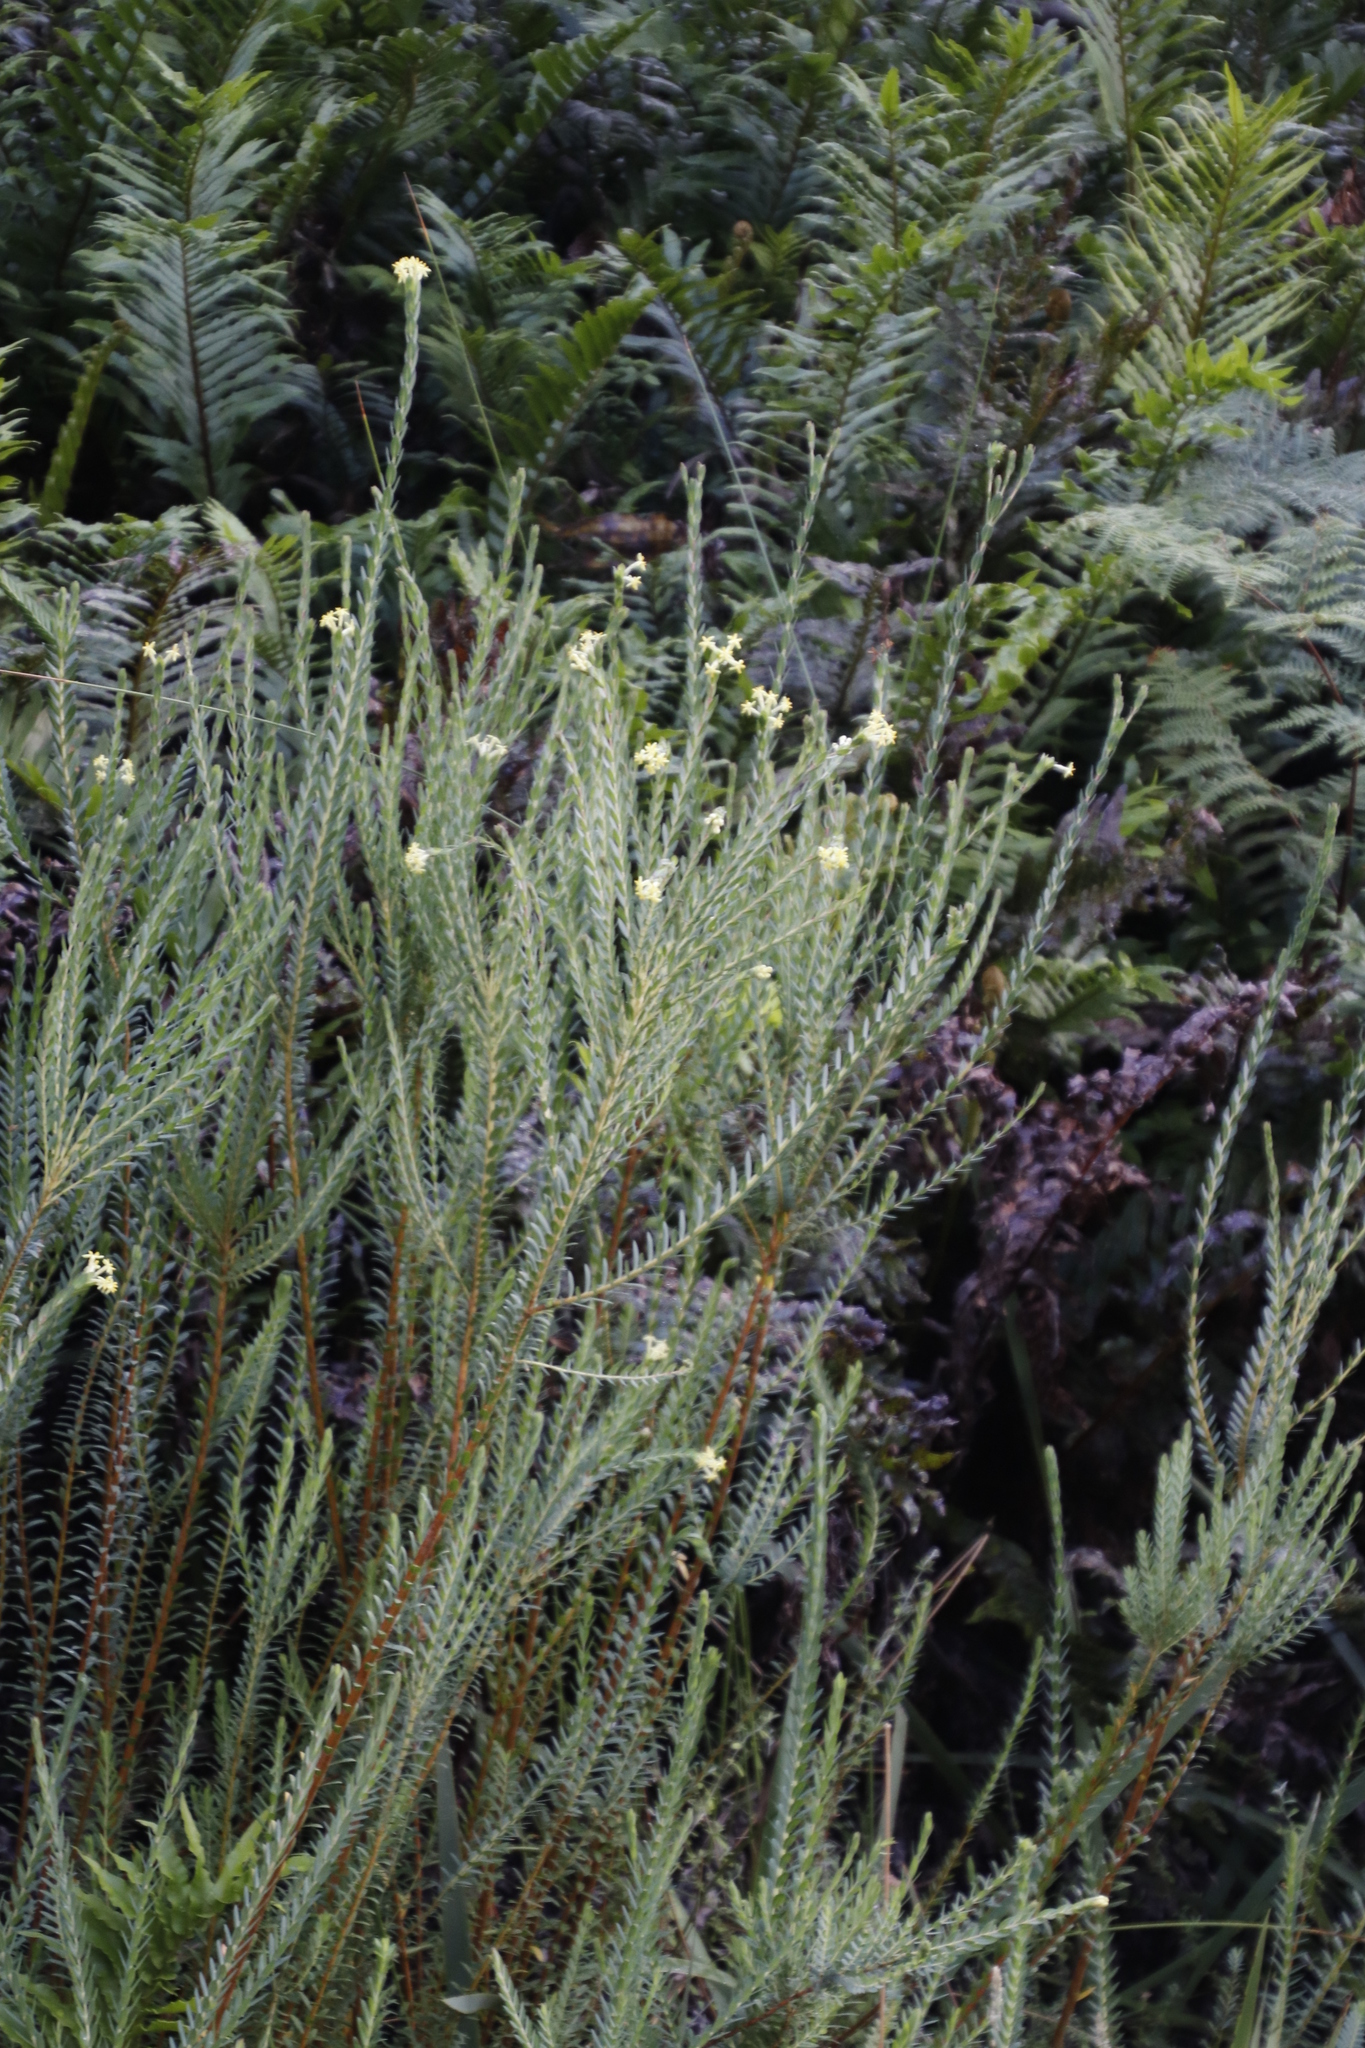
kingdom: Plantae
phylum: Tracheophyta
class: Magnoliopsida
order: Malvales
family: Thymelaeaceae
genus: Gnidia
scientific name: Gnidia oppositifolia
